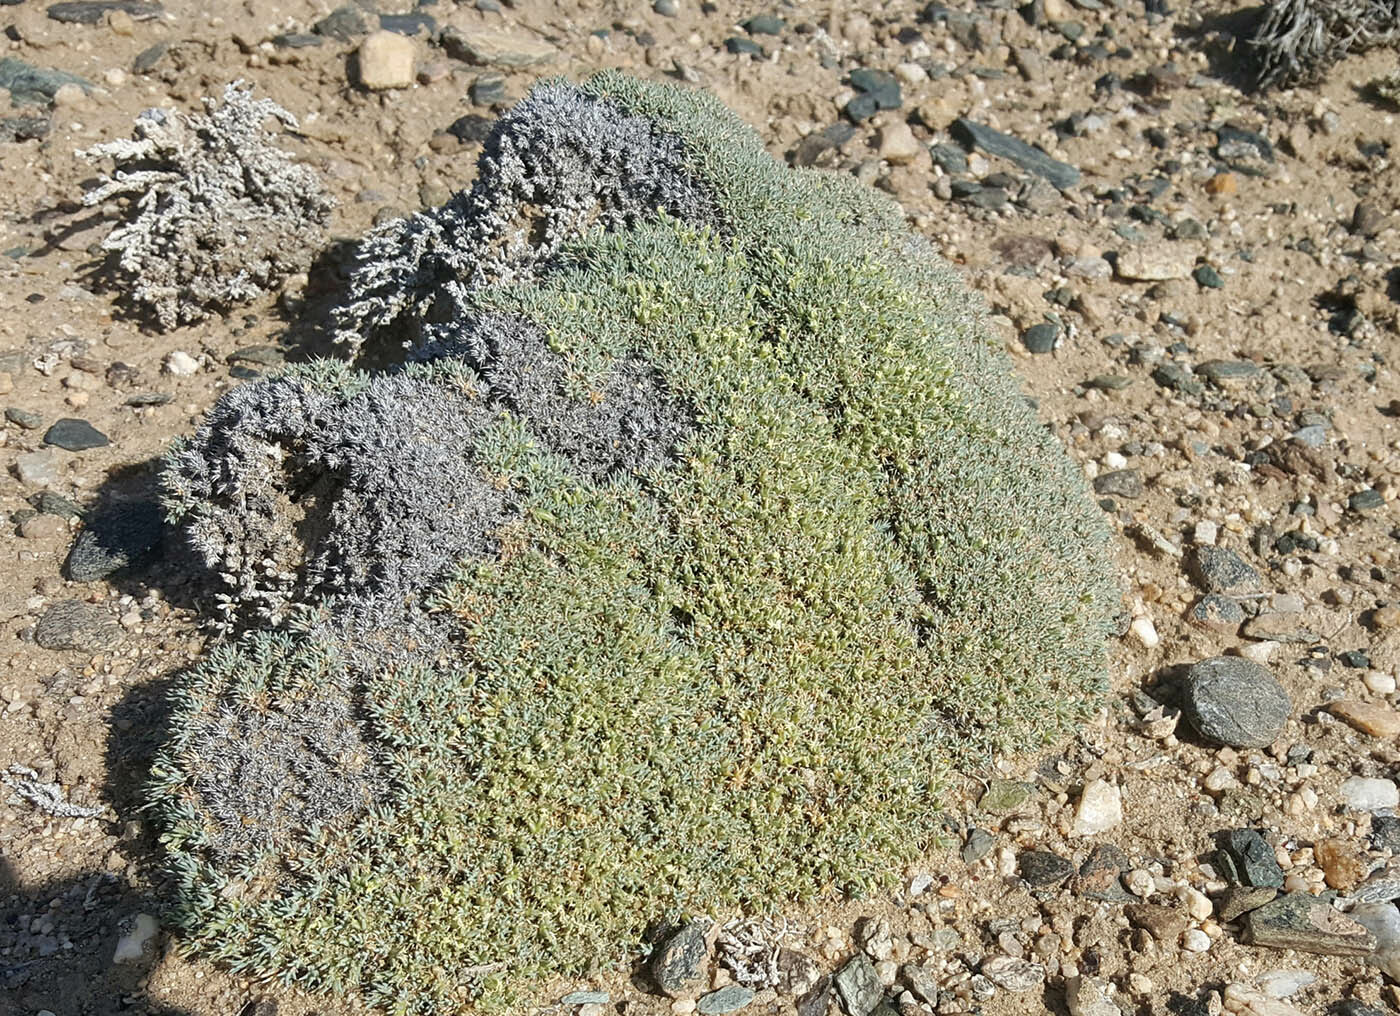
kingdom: Plantae
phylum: Tracheophyta
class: Magnoliopsida
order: Caryophyllales
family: Amaranthaceae
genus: Nanophyton
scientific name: Nanophyton mongolicum
